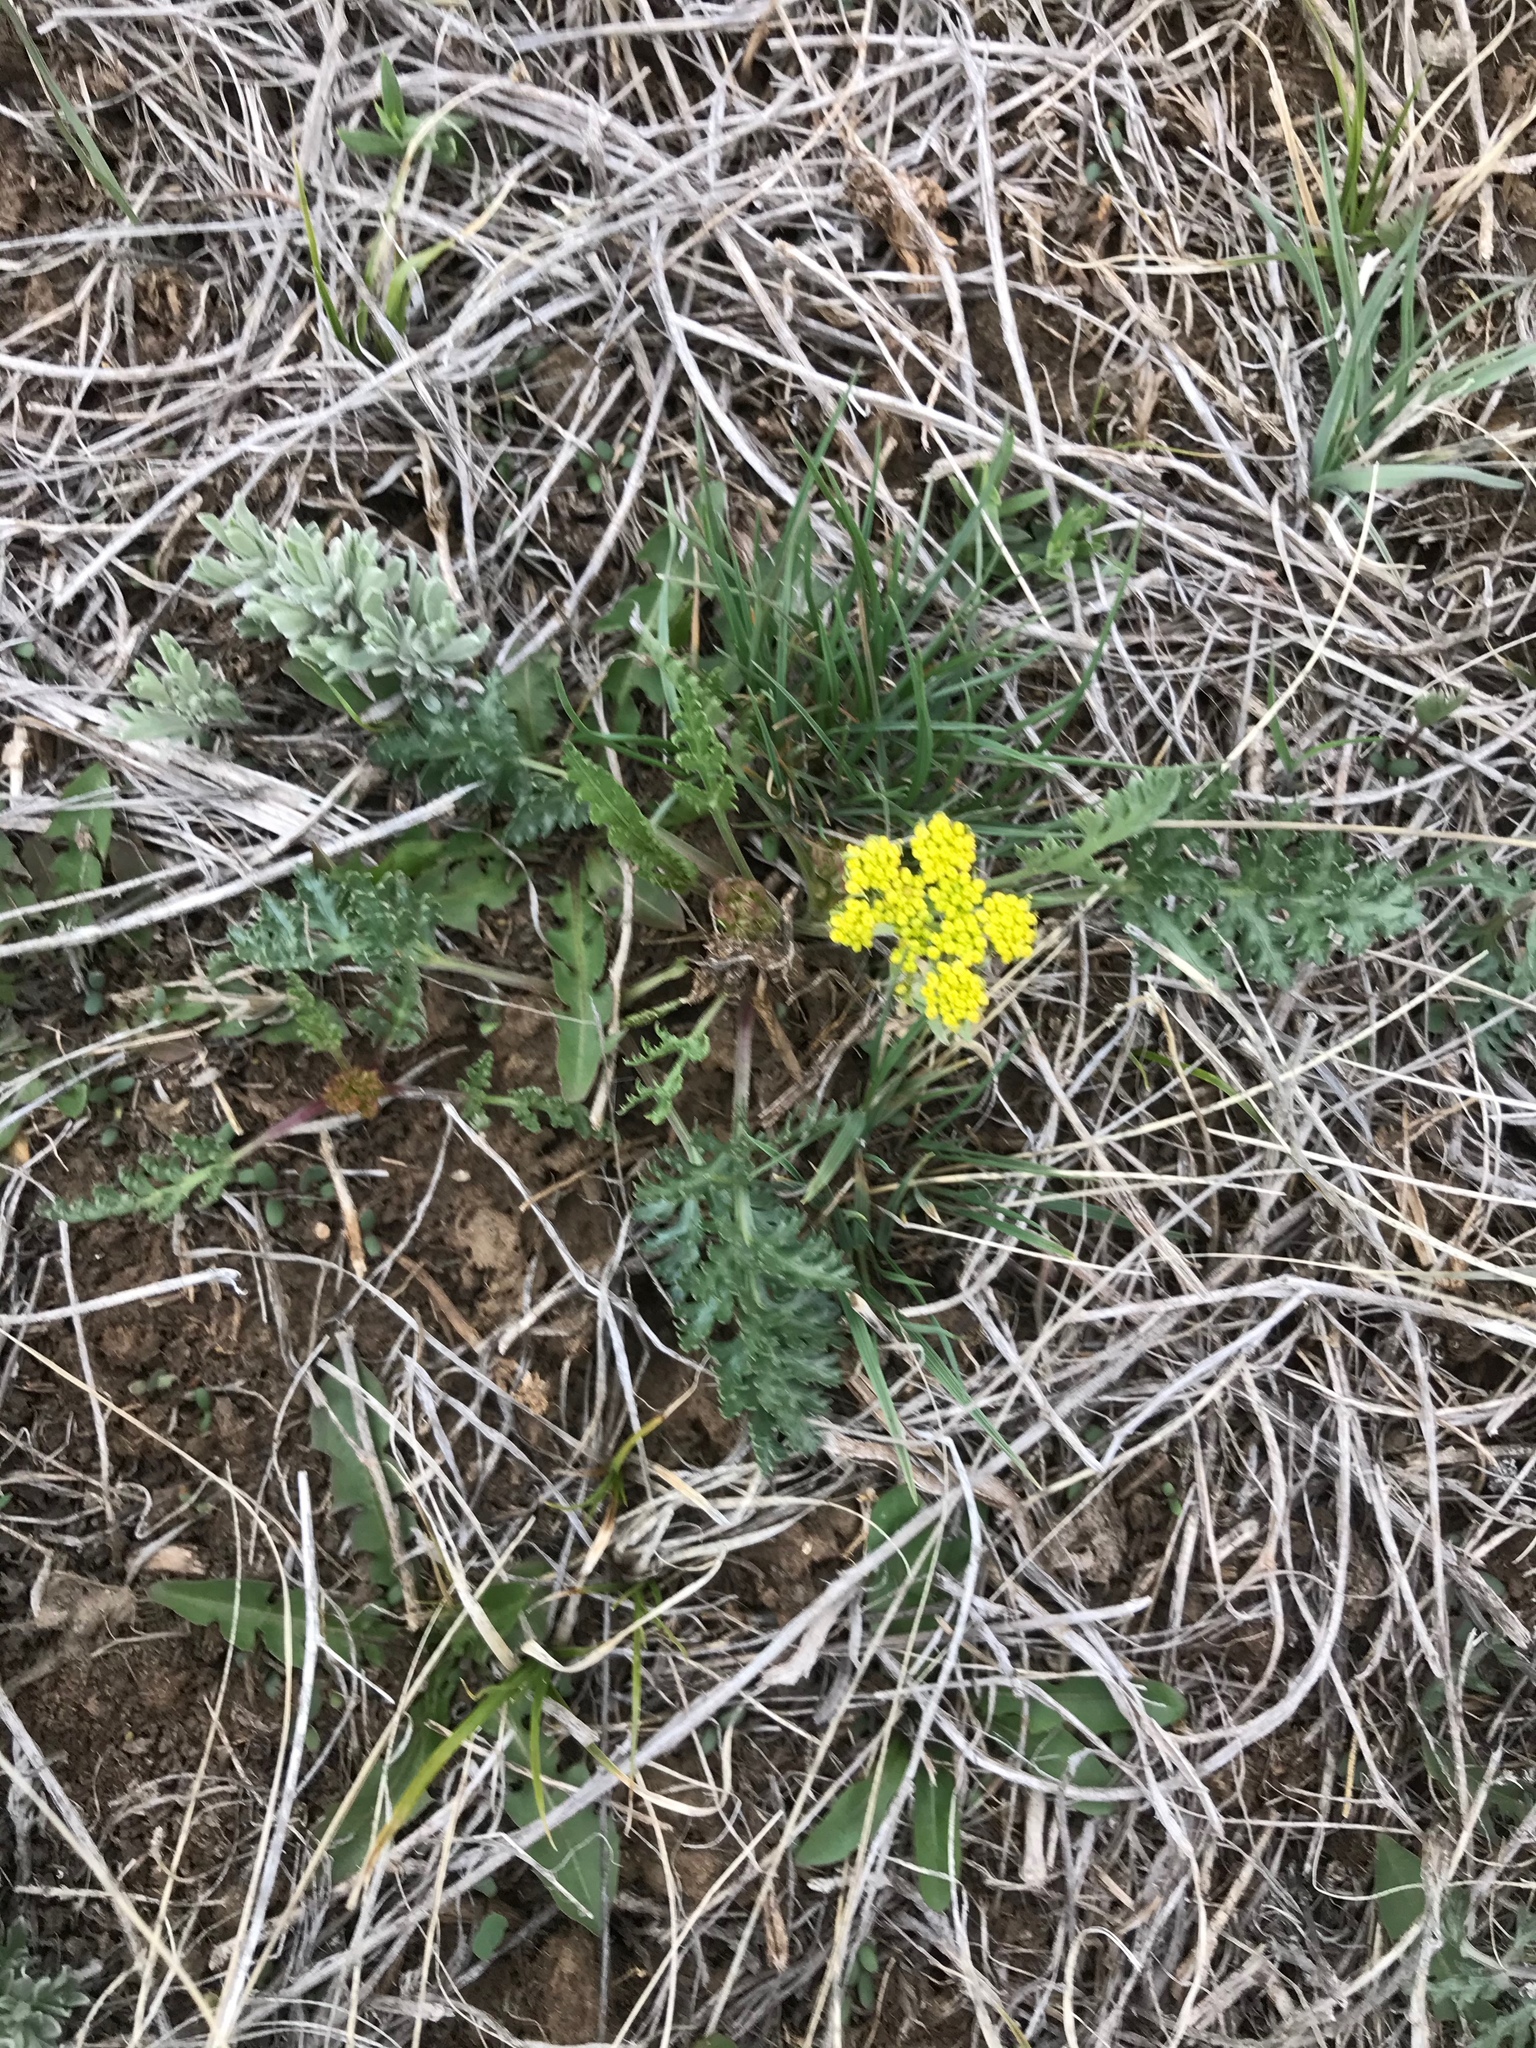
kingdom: Plantae
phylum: Tracheophyta
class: Magnoliopsida
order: Apiales
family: Apiaceae
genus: Musineon
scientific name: Musineon divaricatum
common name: Plains musineon
